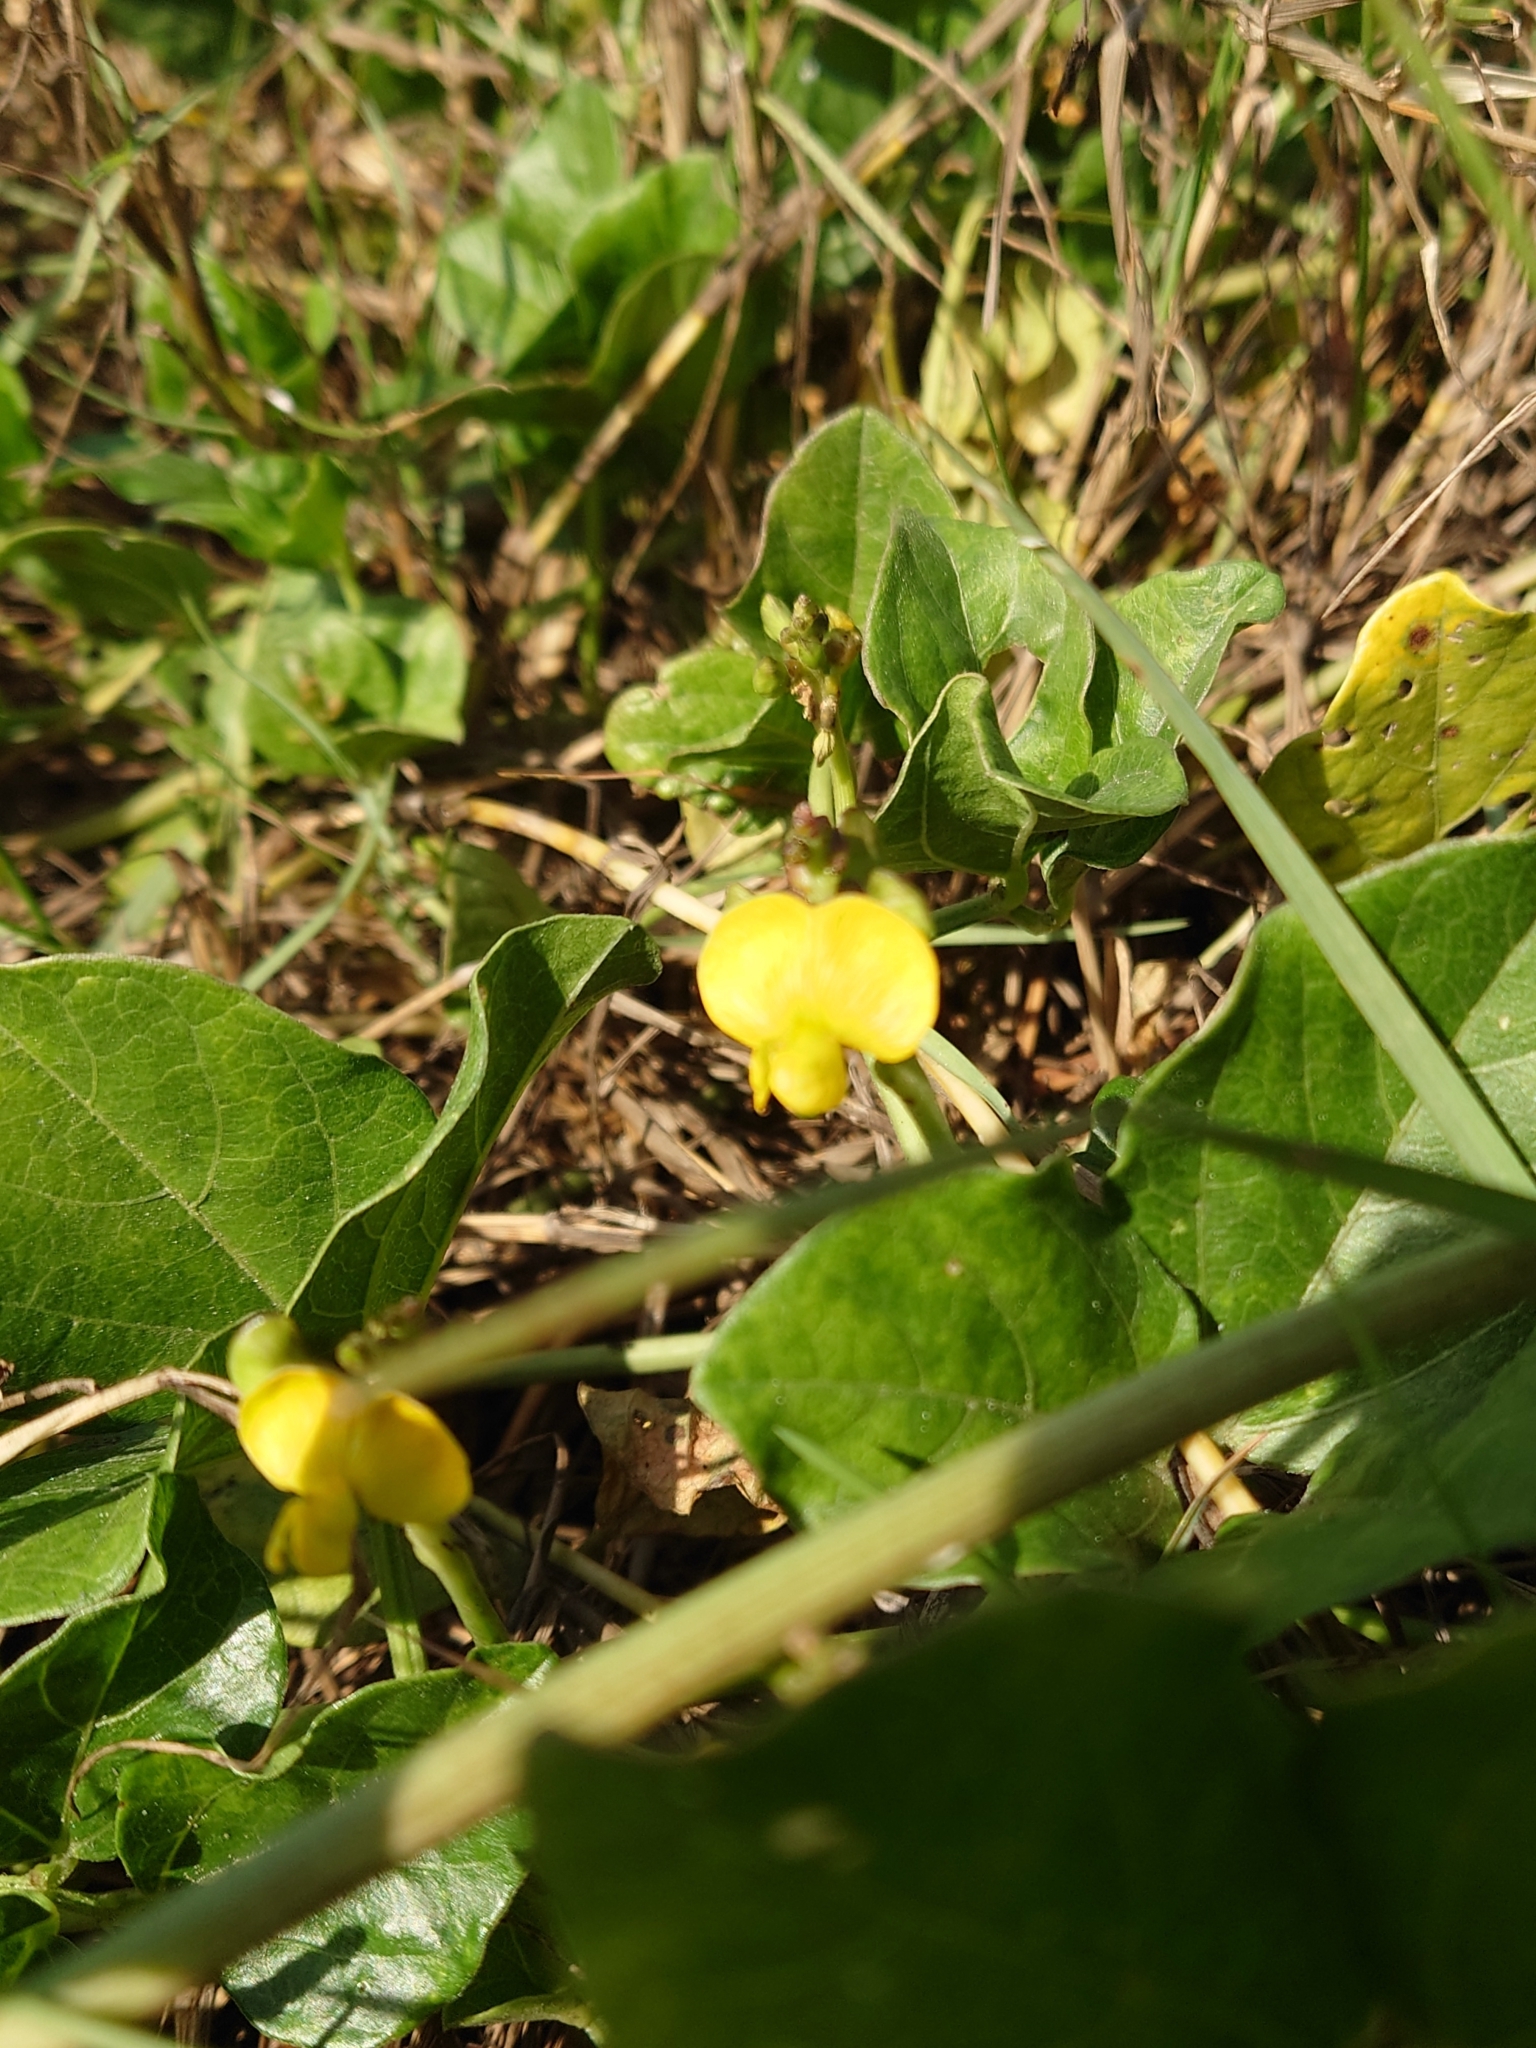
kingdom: Plantae
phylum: Tracheophyta
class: Magnoliopsida
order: Fabales
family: Fabaceae
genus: Vigna
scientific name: Vigna marina
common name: Dune-bean
